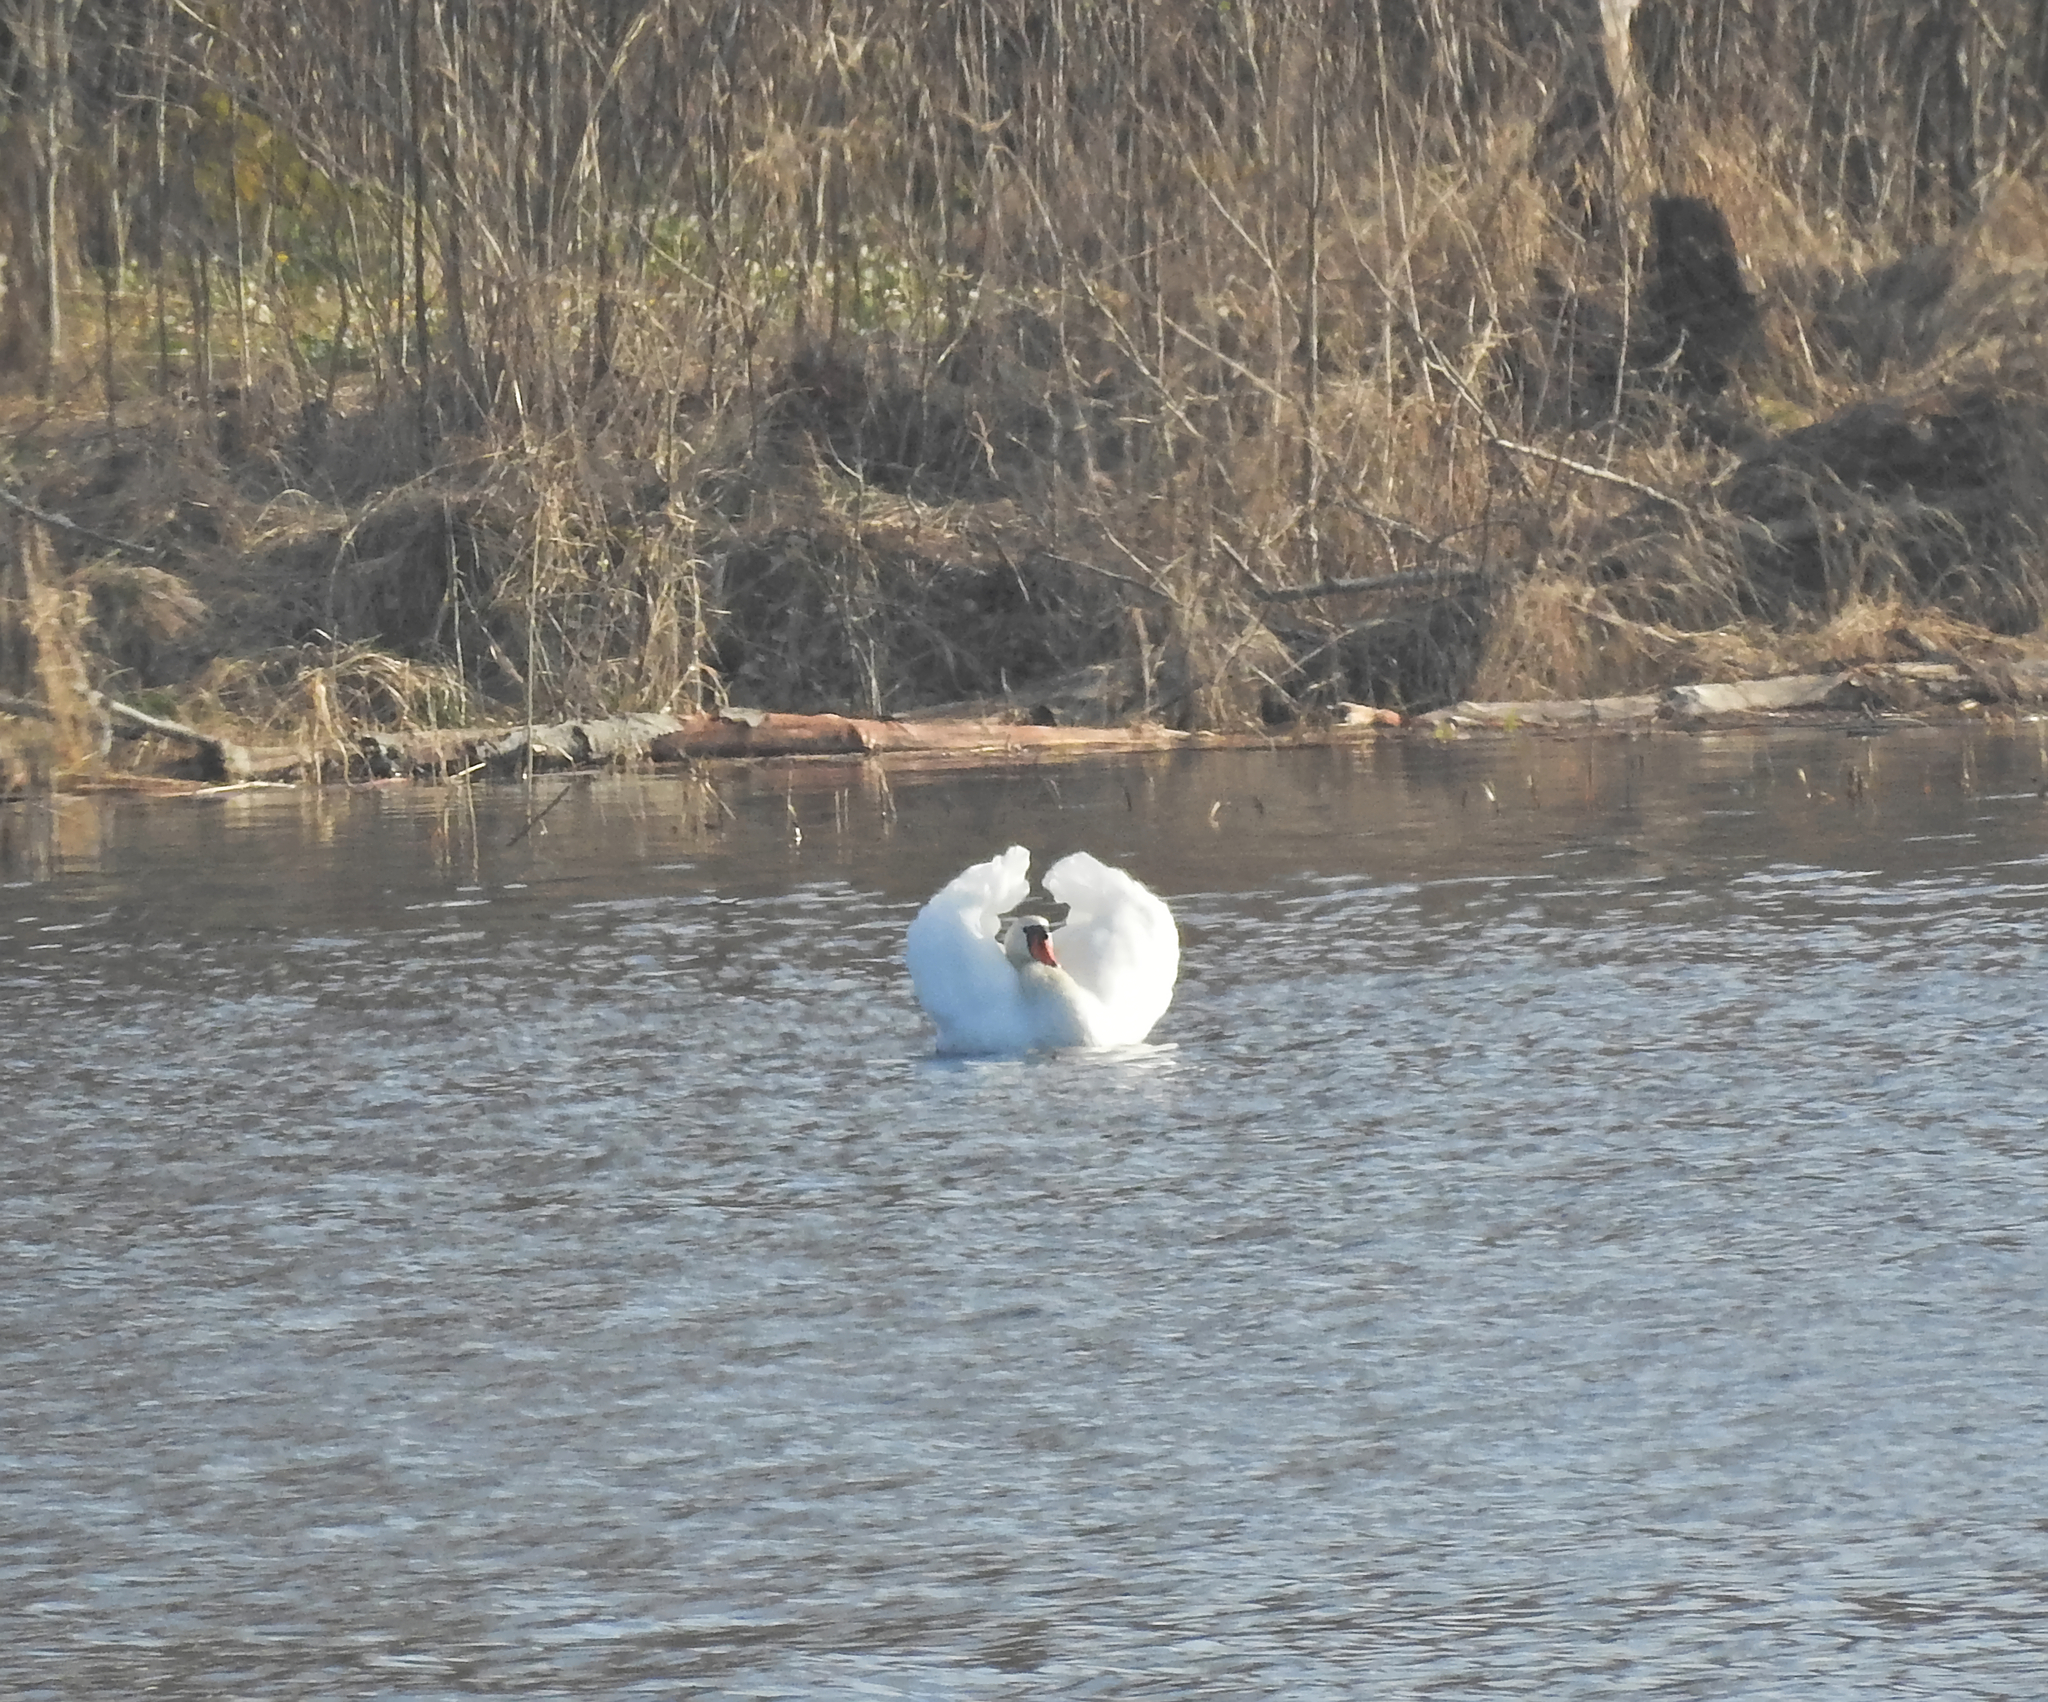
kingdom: Animalia
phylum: Chordata
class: Aves
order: Anseriformes
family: Anatidae
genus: Cygnus
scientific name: Cygnus olor
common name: Mute swan
